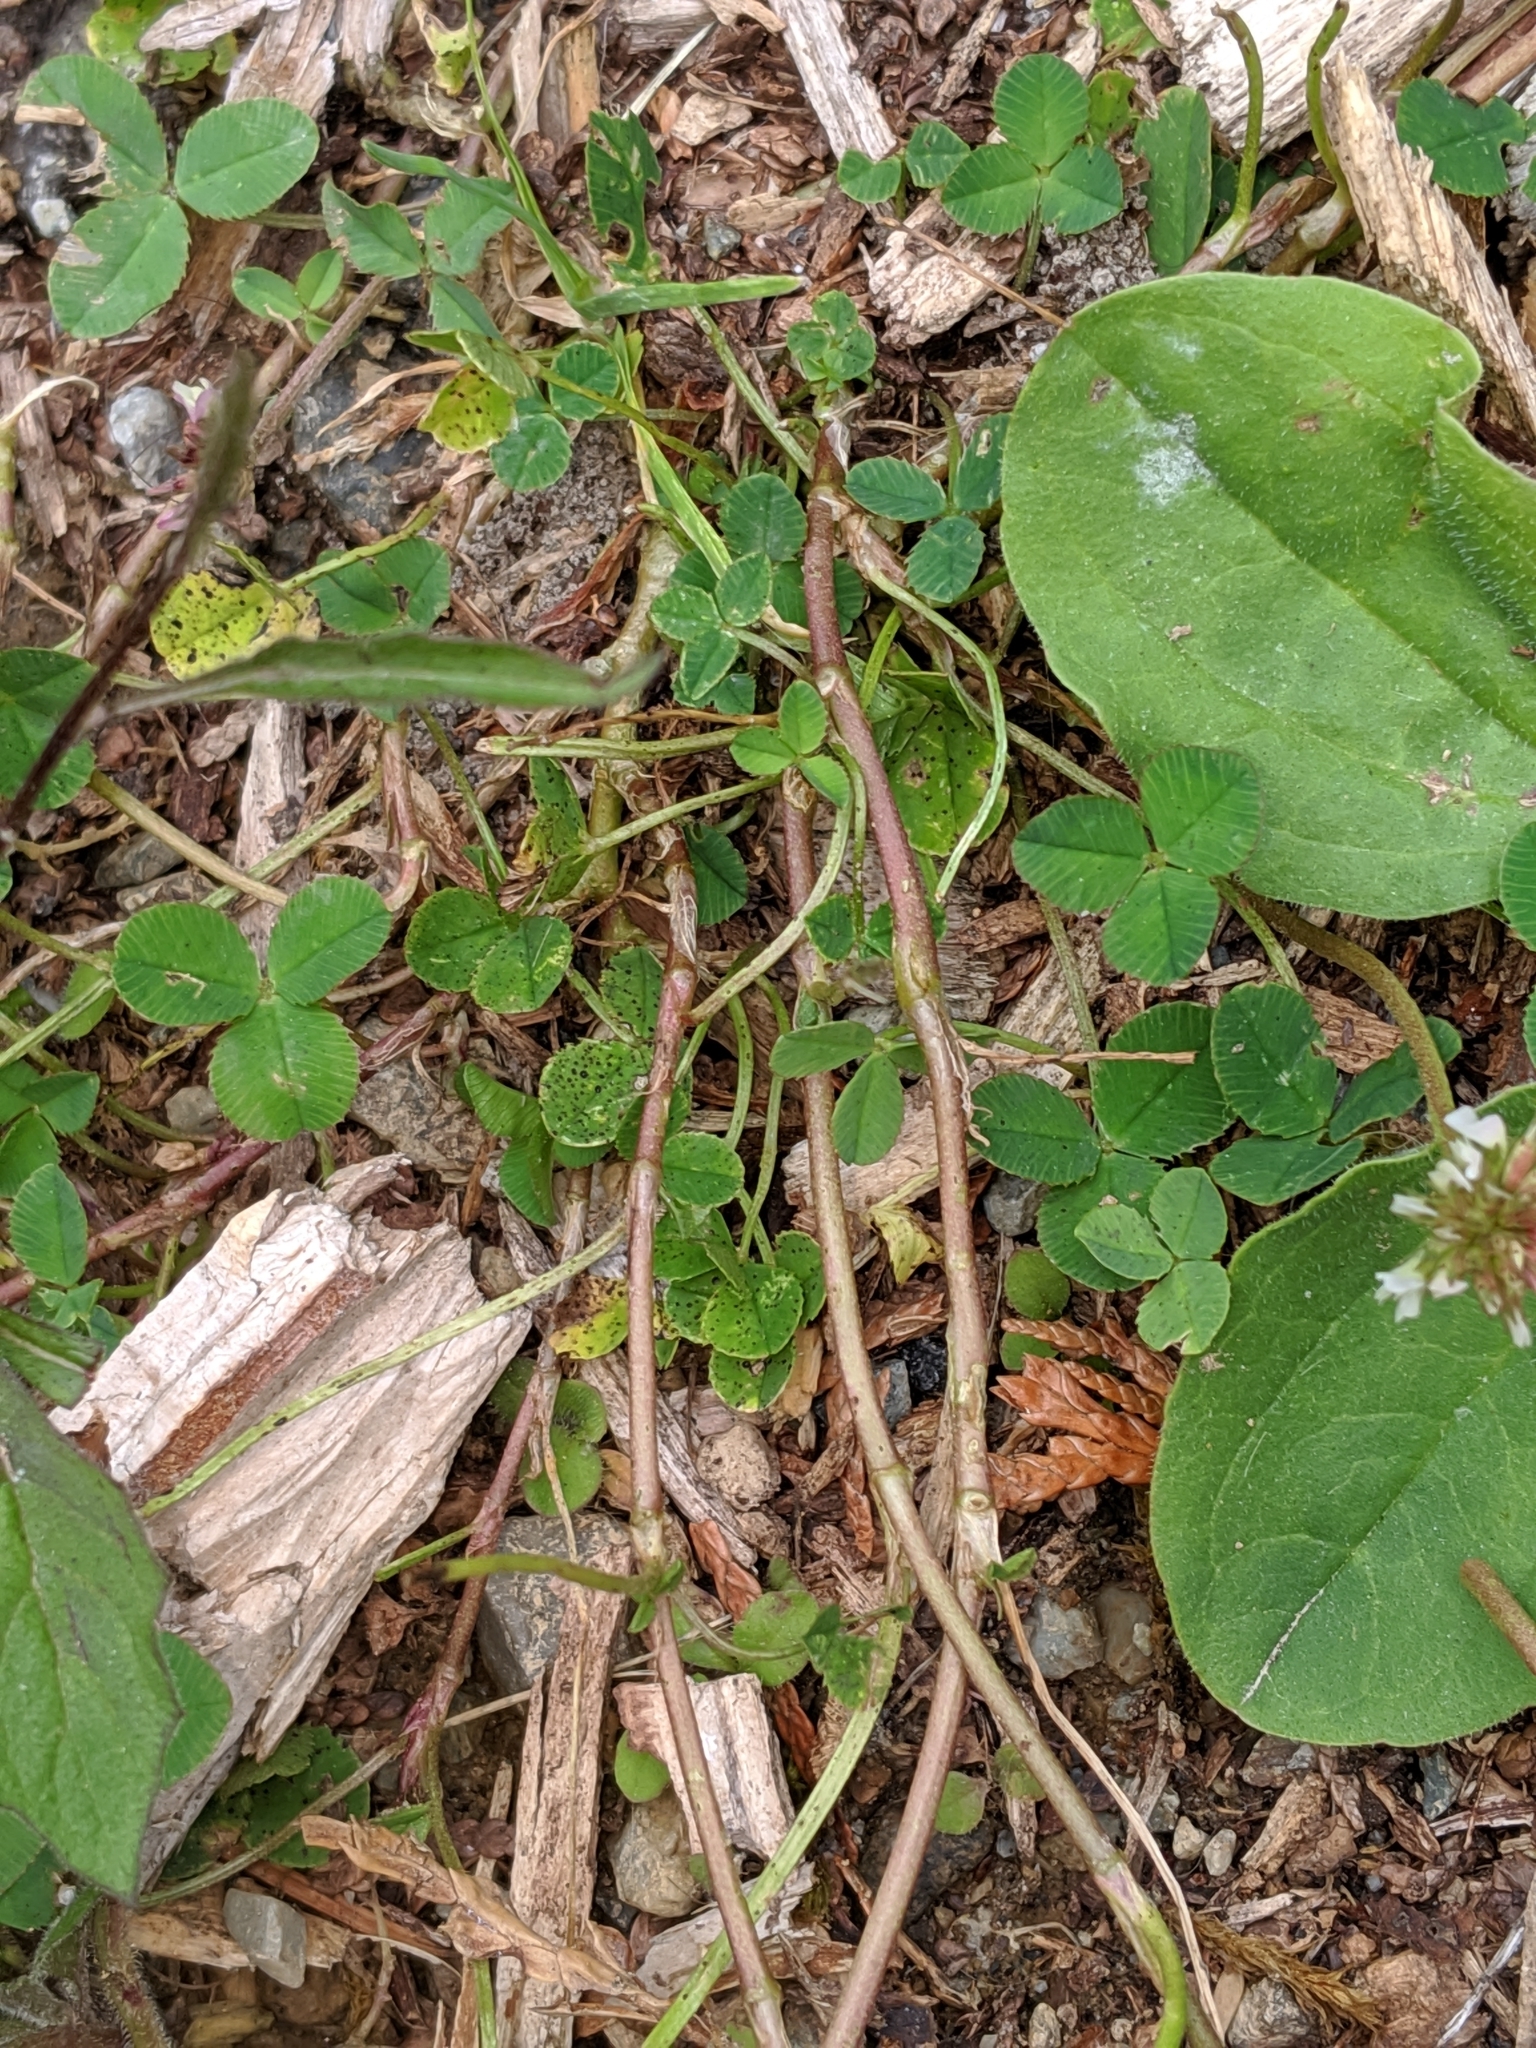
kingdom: Plantae
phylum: Tracheophyta
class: Magnoliopsida
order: Fabales
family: Fabaceae
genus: Trifolium
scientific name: Trifolium repens
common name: White clover
